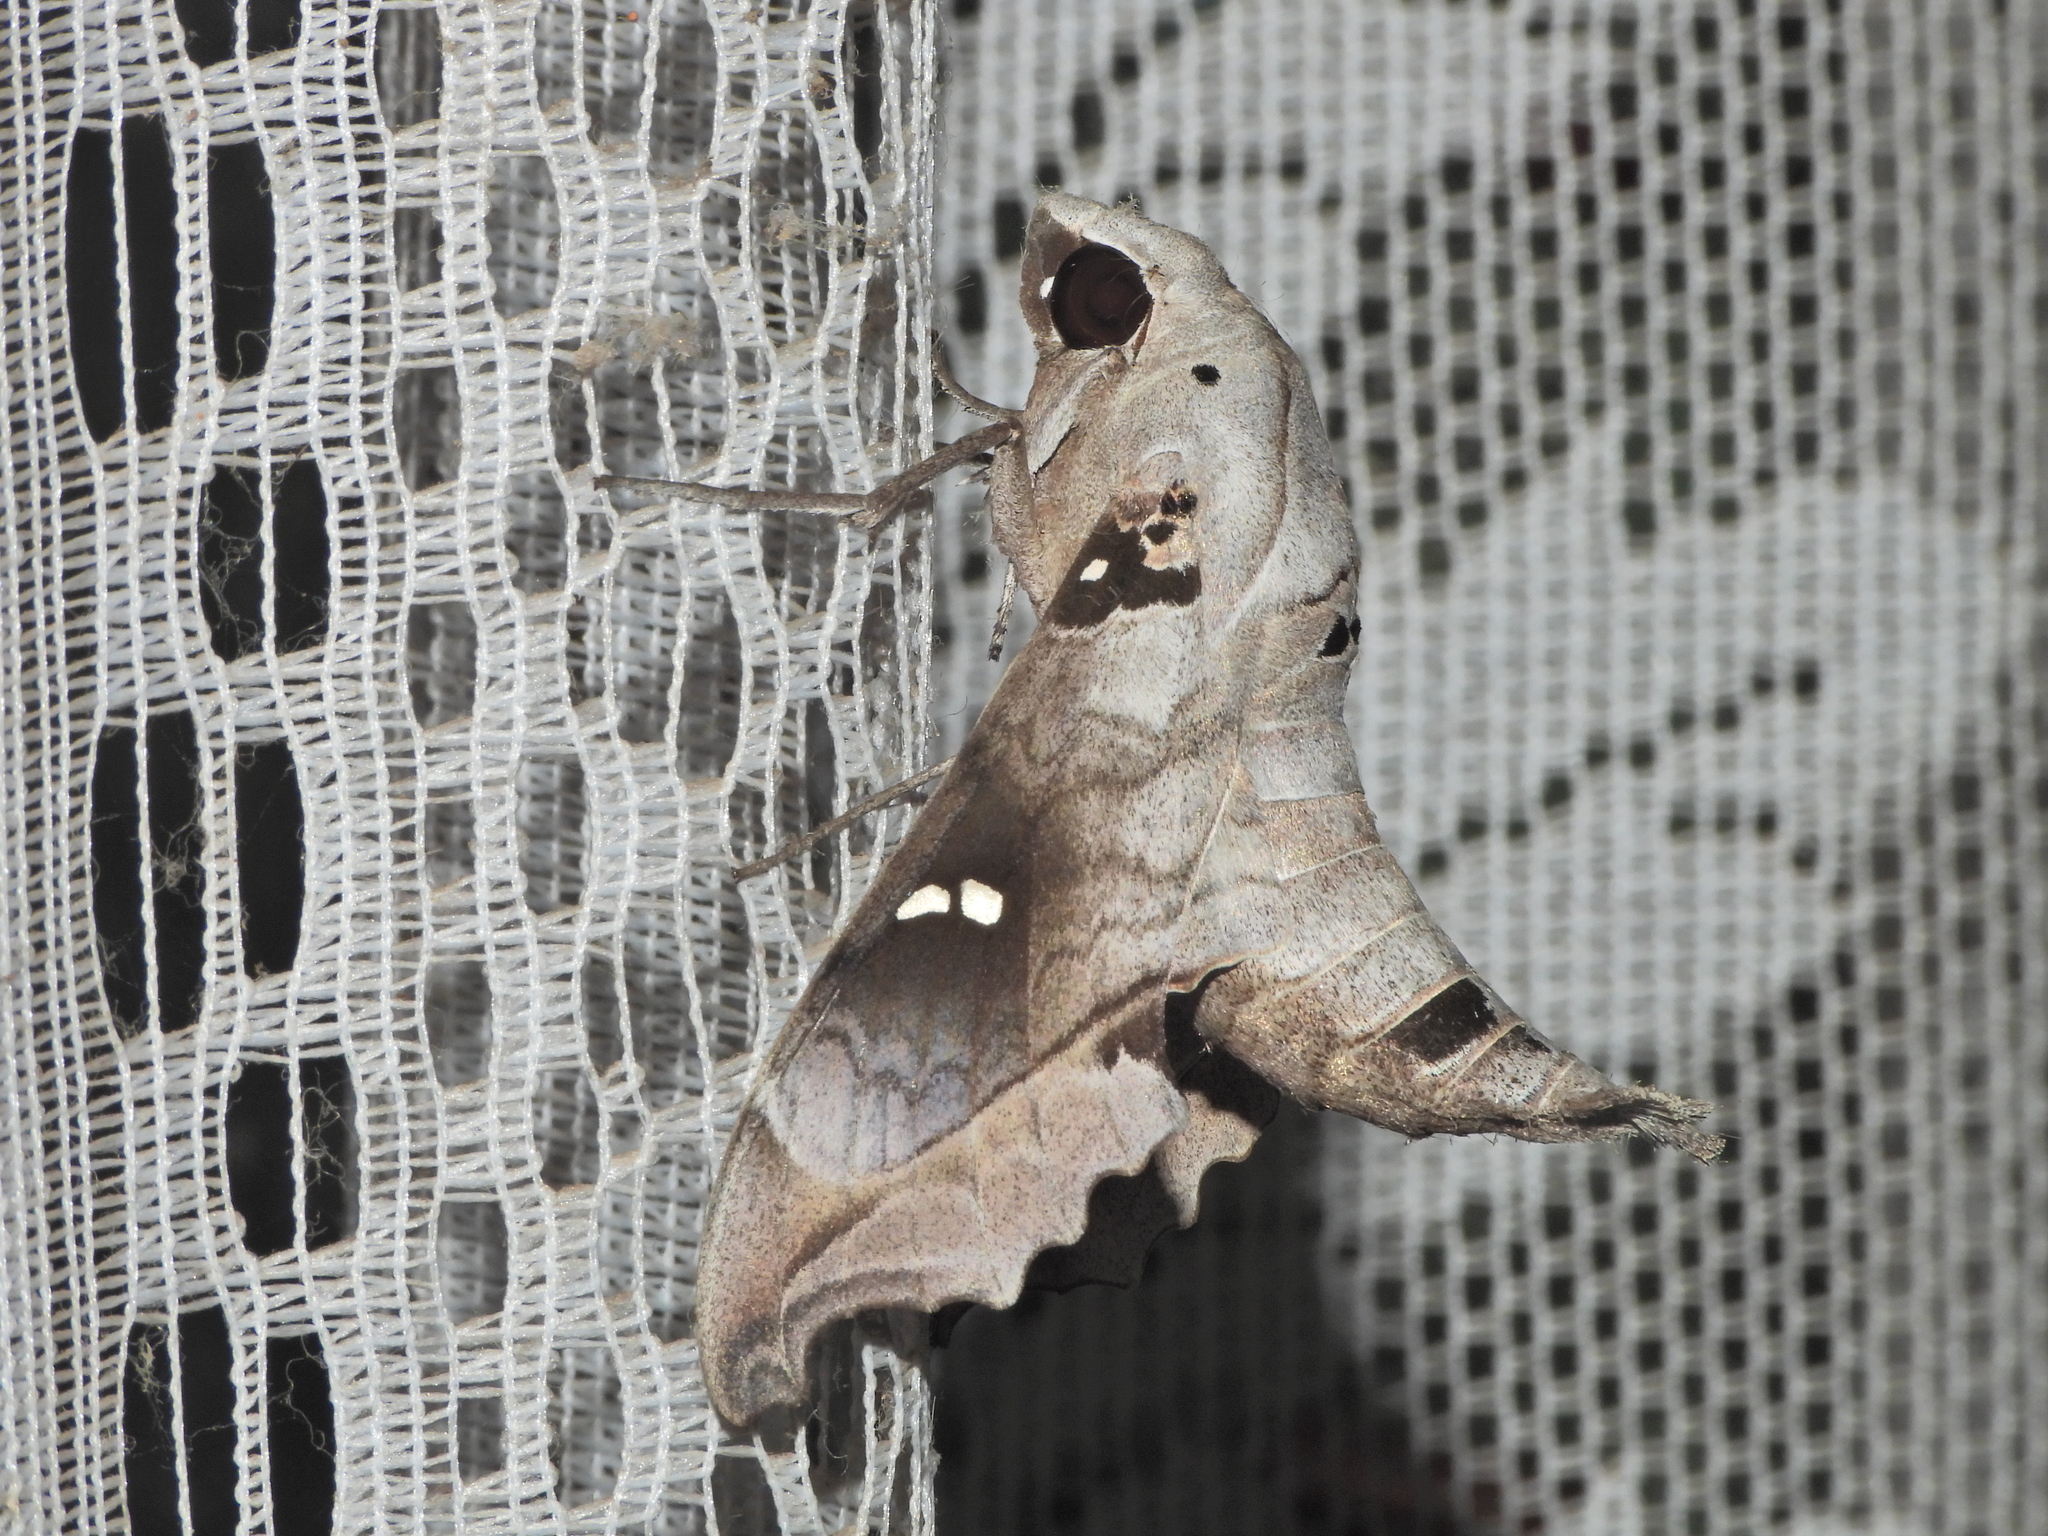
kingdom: Animalia
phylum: Arthropoda
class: Insecta
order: Lepidoptera
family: Sphingidae
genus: Madoryx
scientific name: Madoryx oiclus
